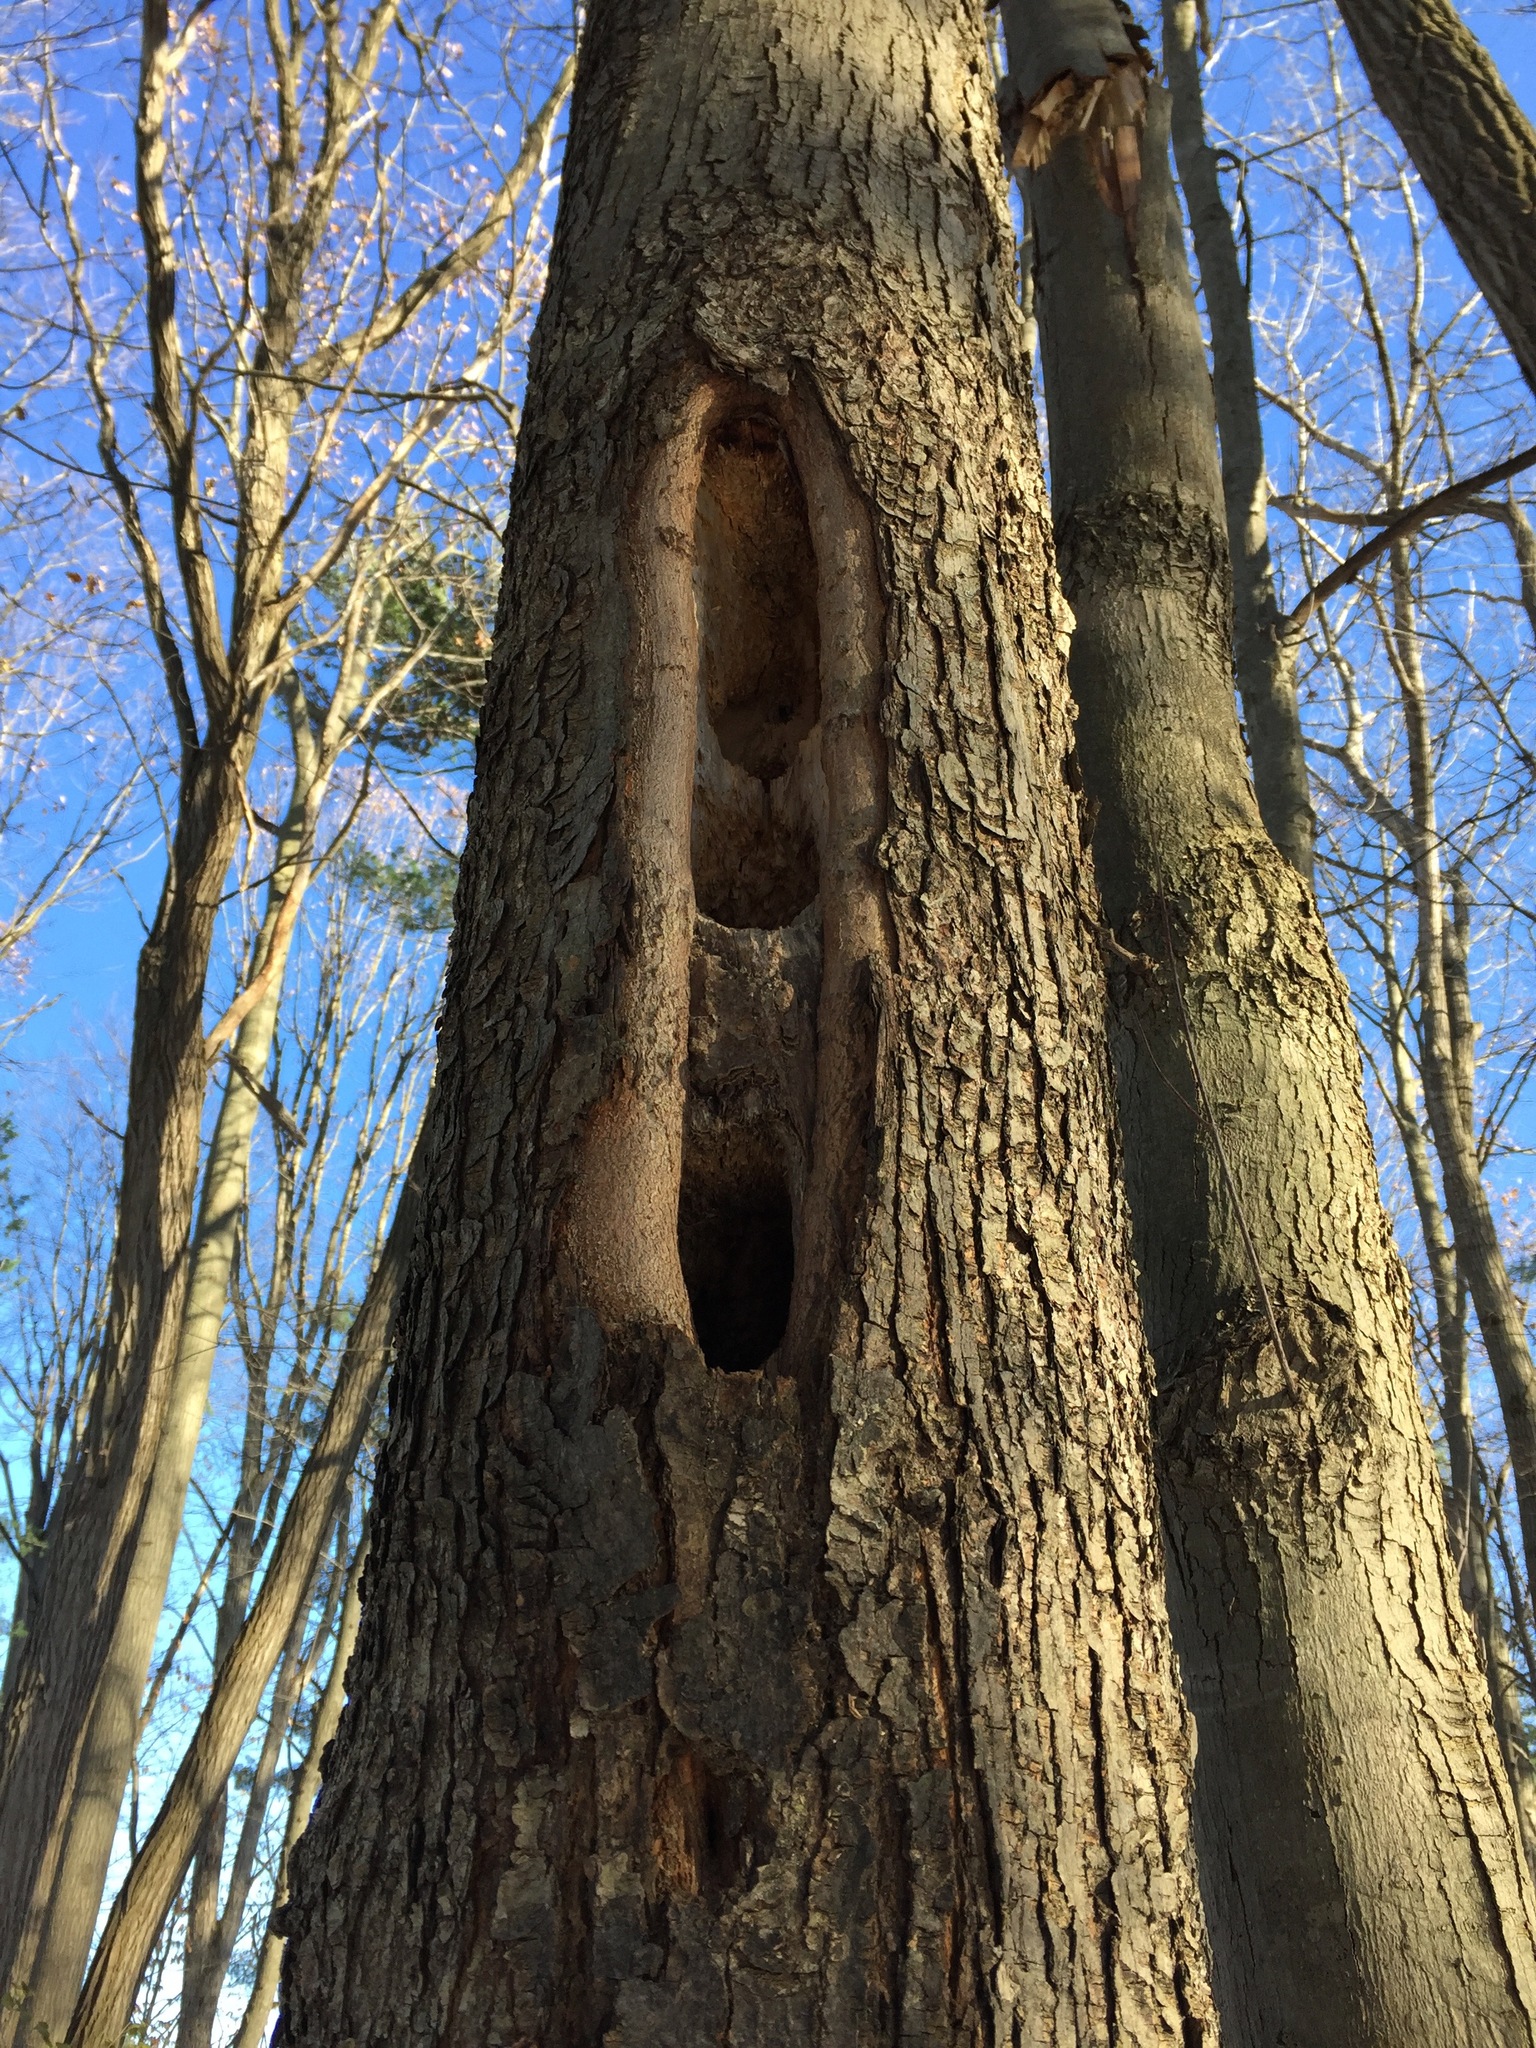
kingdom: Animalia
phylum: Chordata
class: Aves
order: Piciformes
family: Picidae
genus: Dryocopus
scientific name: Dryocopus pileatus
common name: Pileated woodpecker
